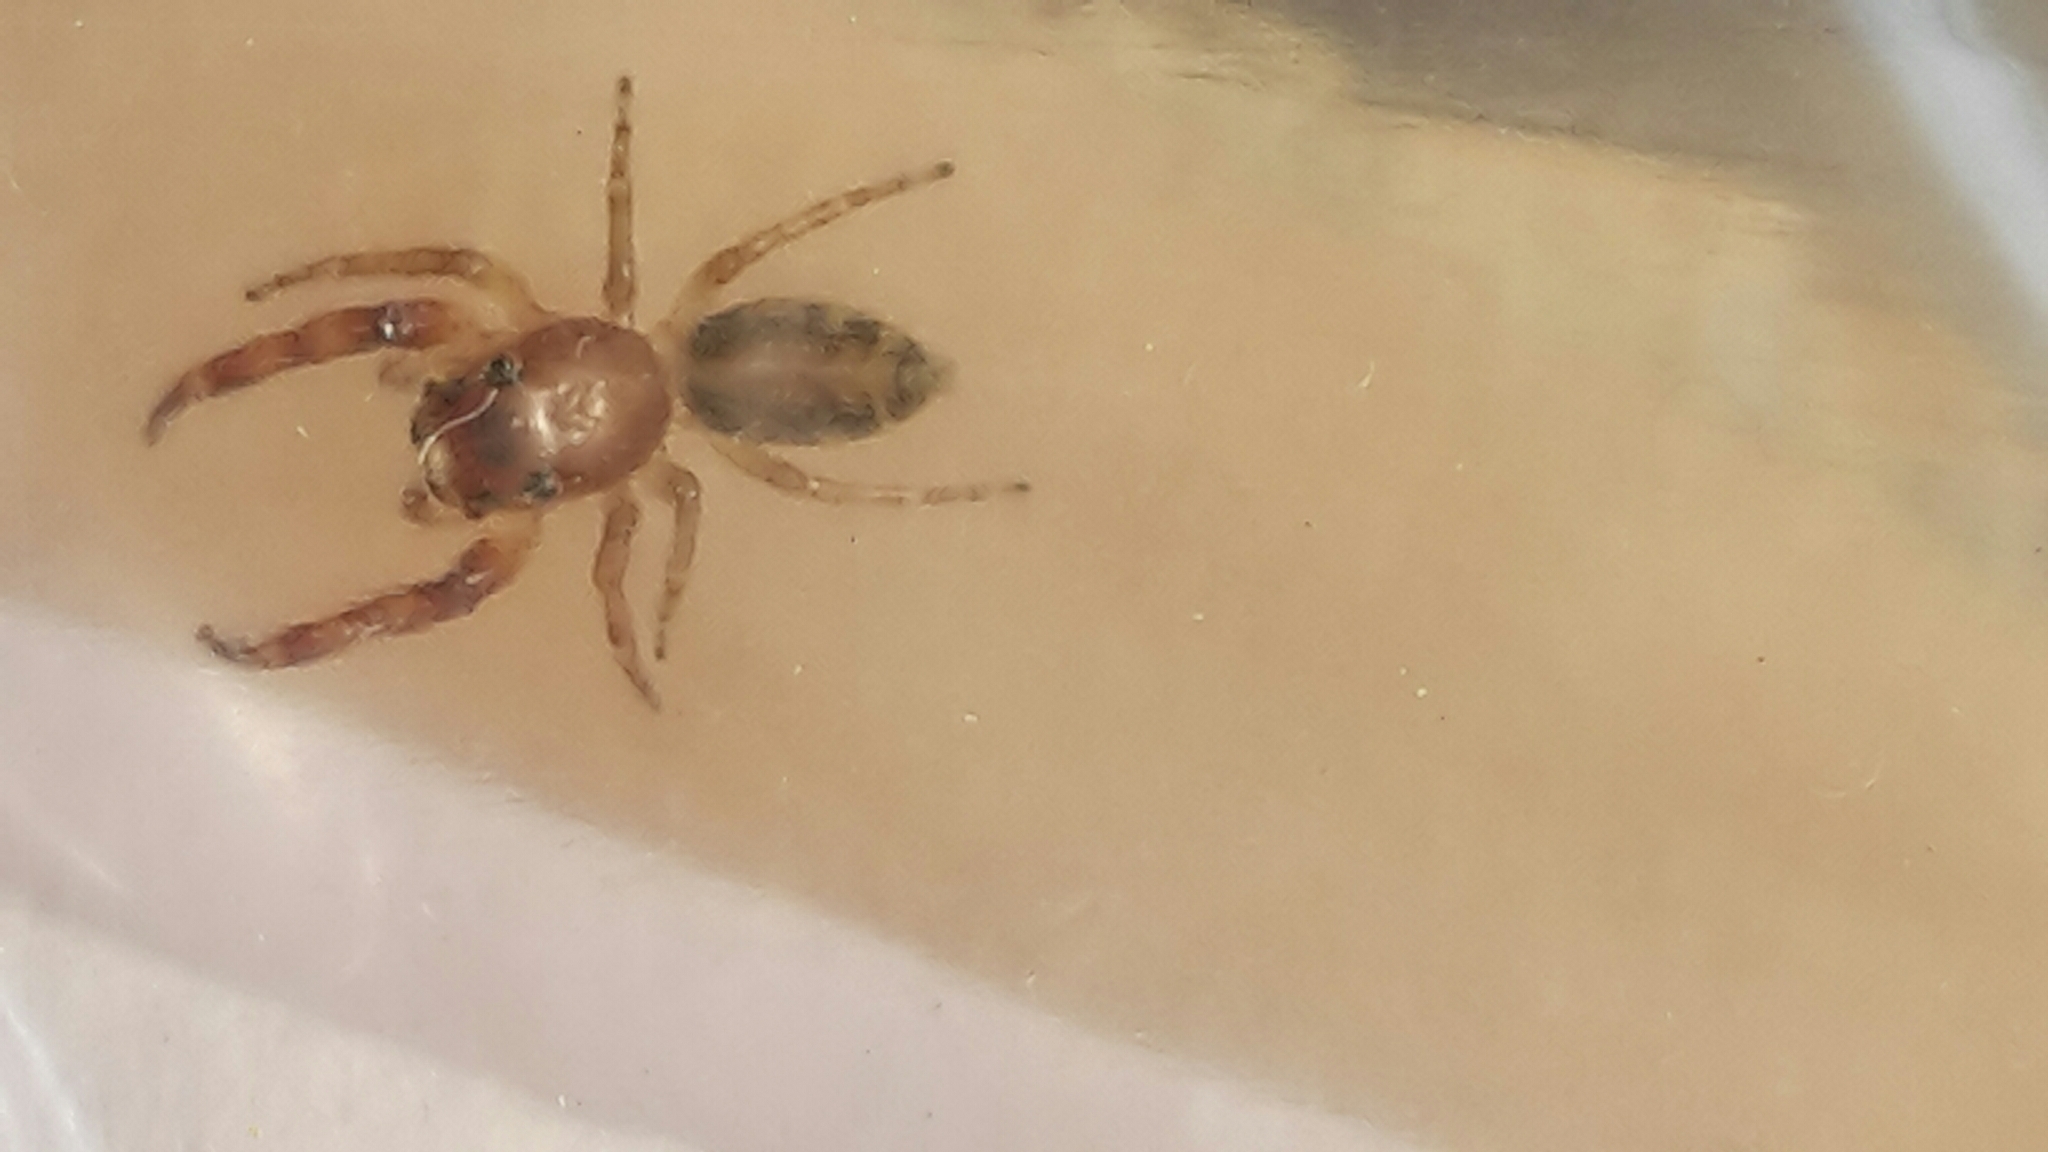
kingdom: Animalia
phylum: Arthropoda
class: Arachnida
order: Araneae
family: Salticidae
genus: Helpis
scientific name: Helpis minitabunda
